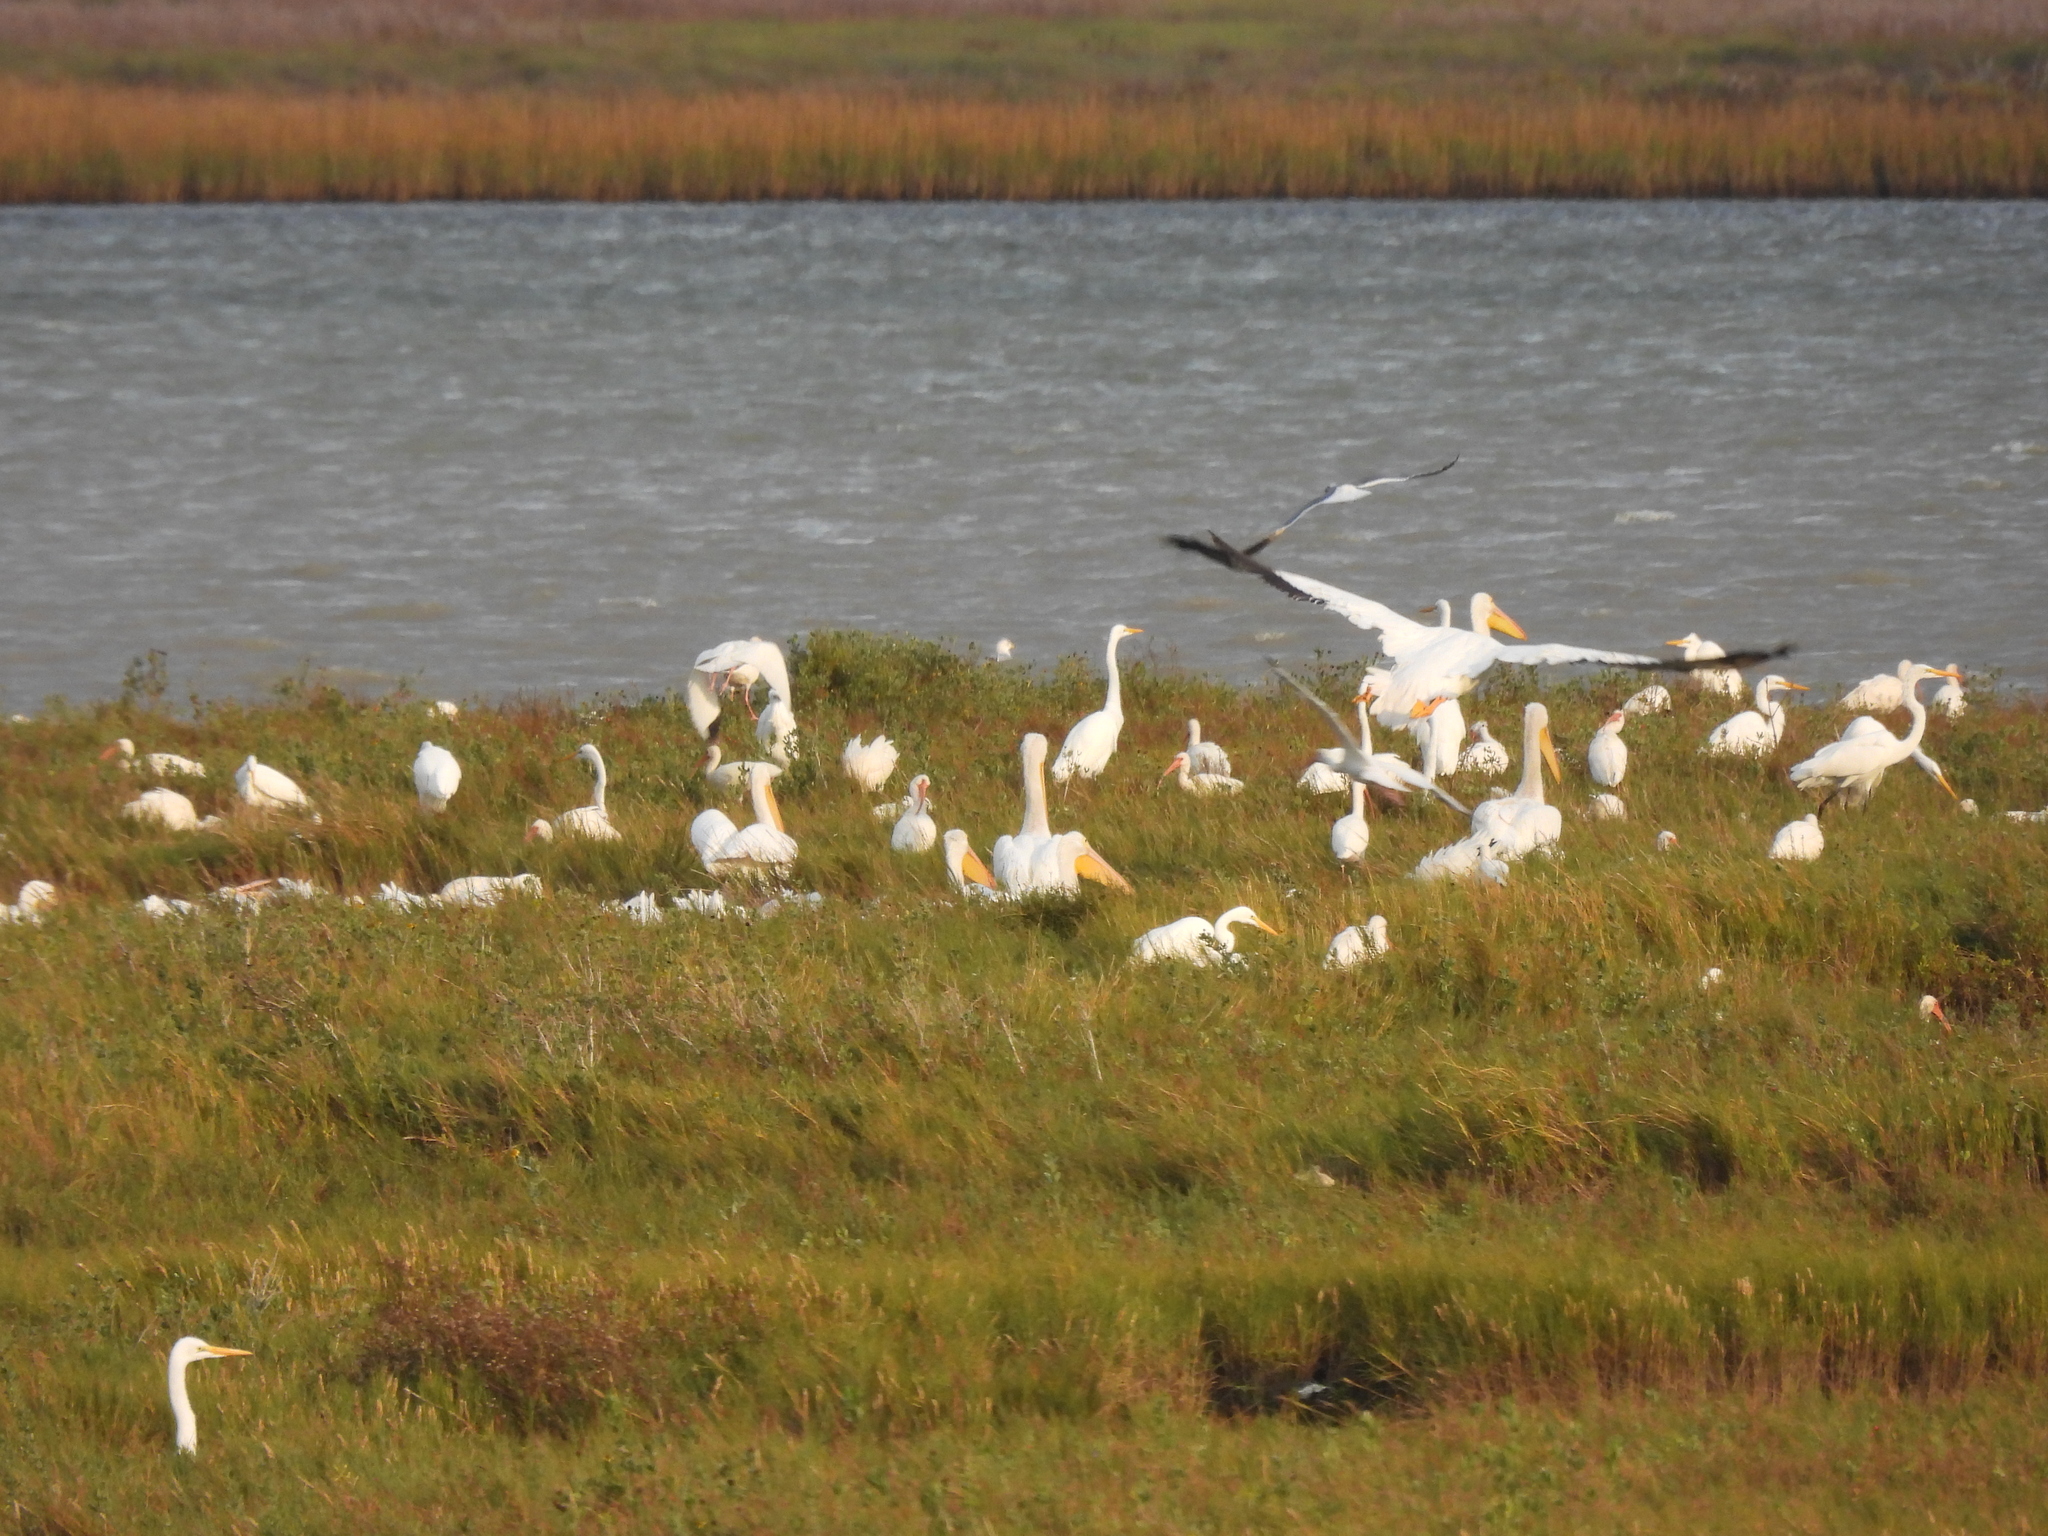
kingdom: Animalia
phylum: Chordata
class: Aves
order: Pelecaniformes
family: Ardeidae
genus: Ardea
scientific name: Ardea alba
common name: Great egret
